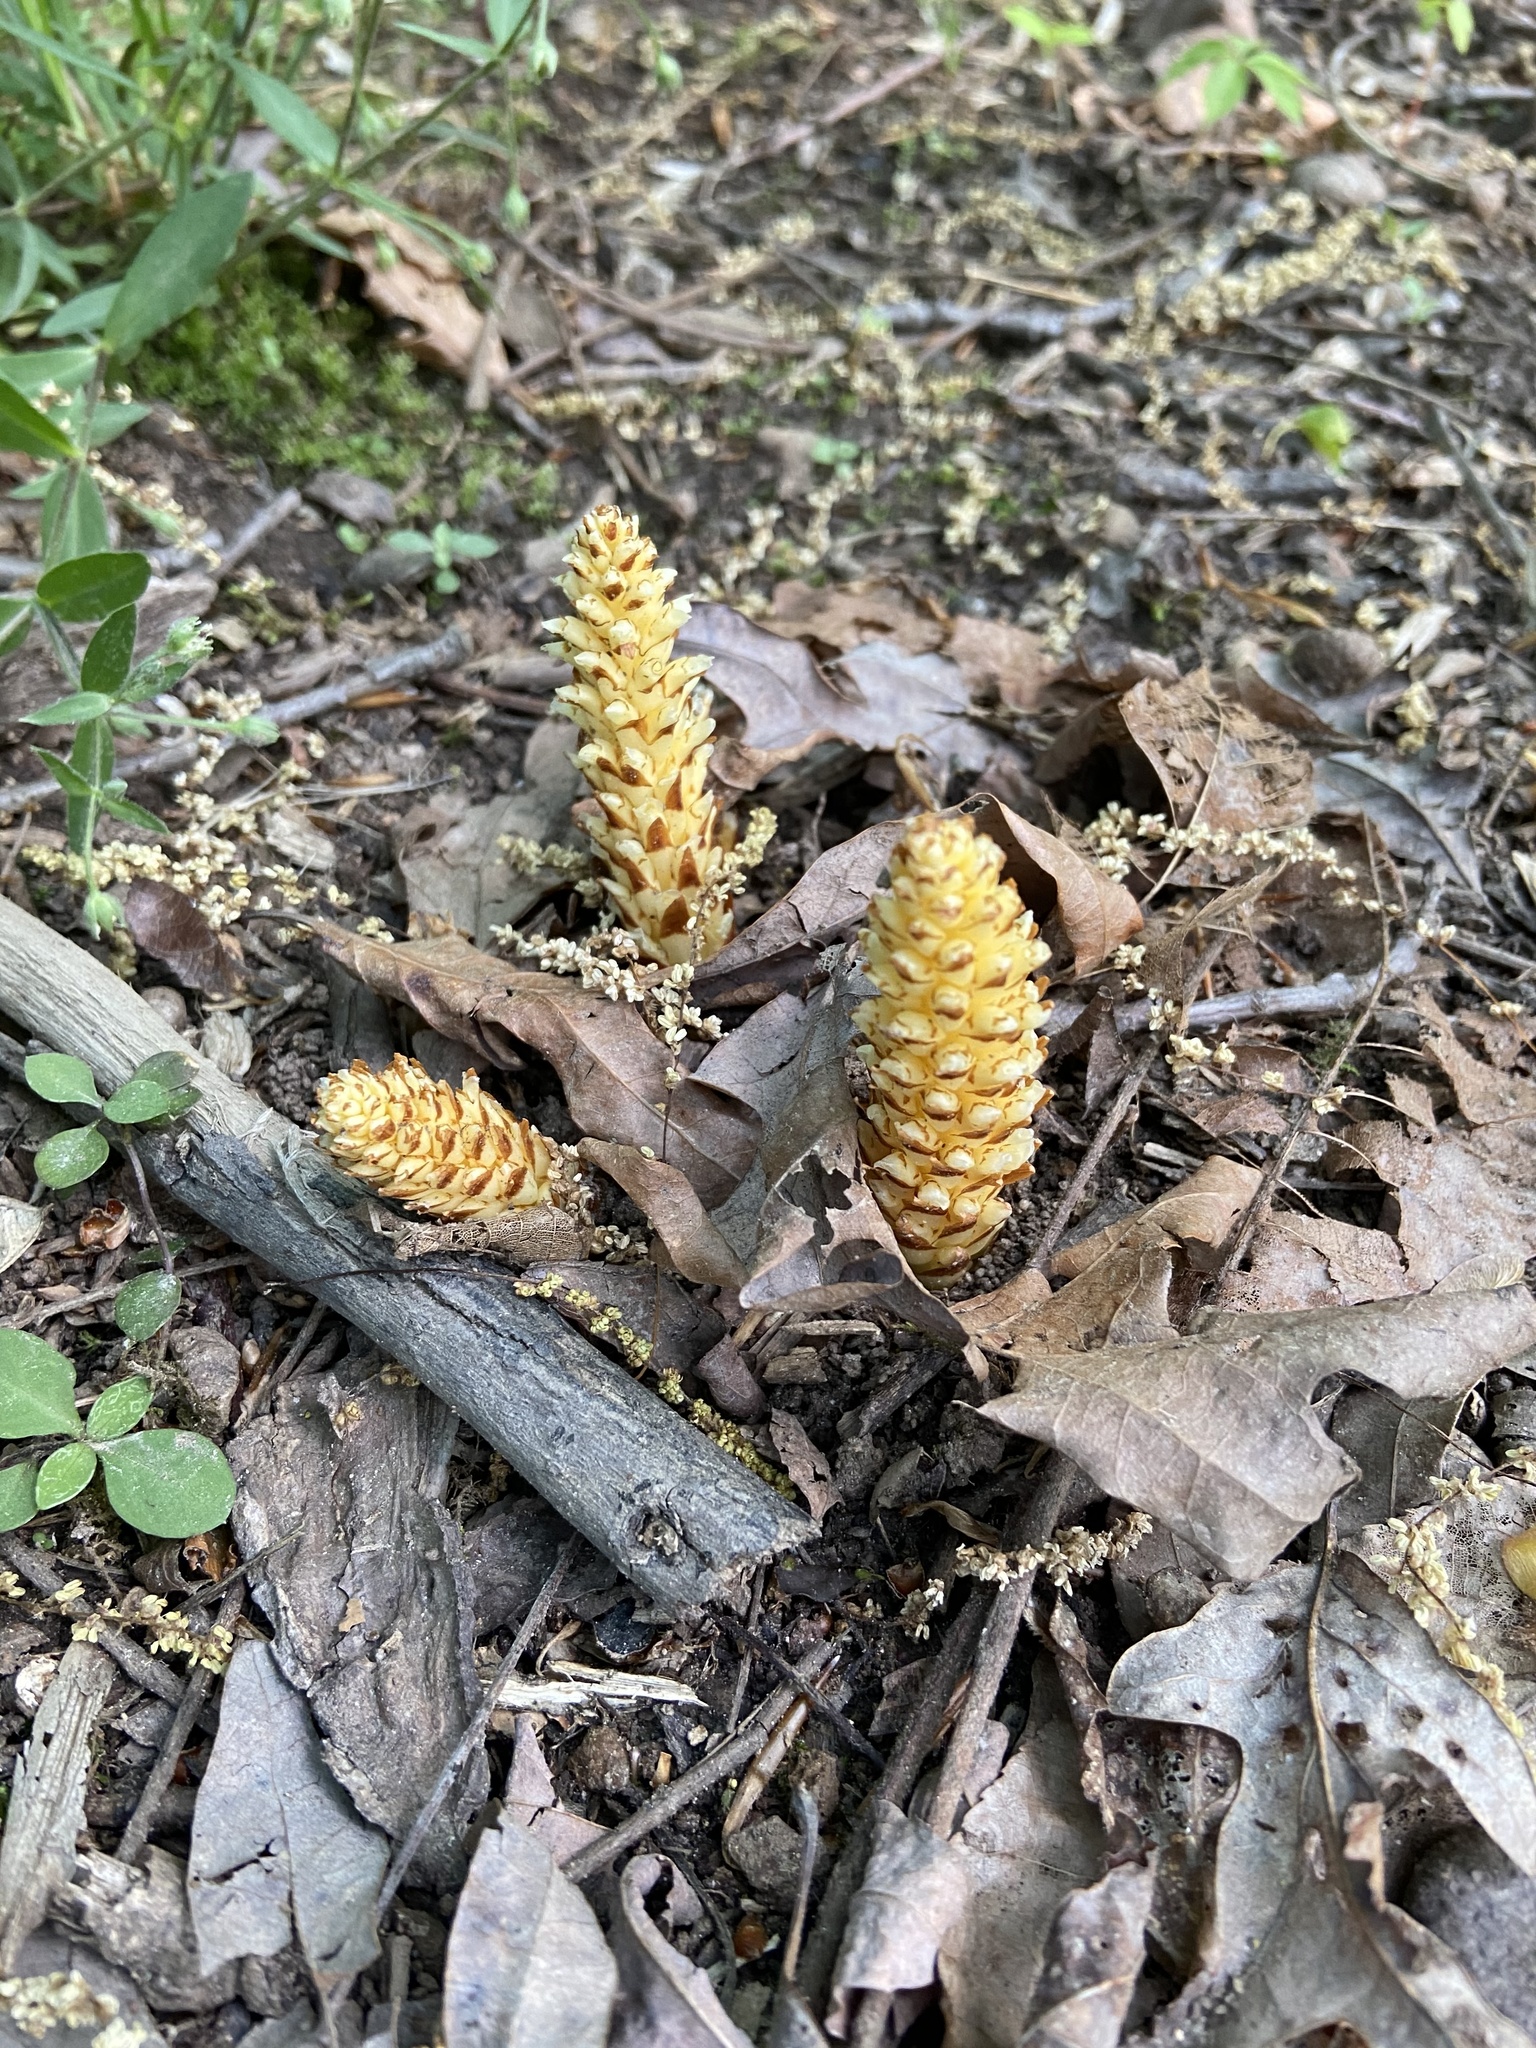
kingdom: Plantae
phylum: Tracheophyta
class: Magnoliopsida
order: Lamiales
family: Orobanchaceae
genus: Conopholis
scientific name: Conopholis americana
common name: American cancer-root
